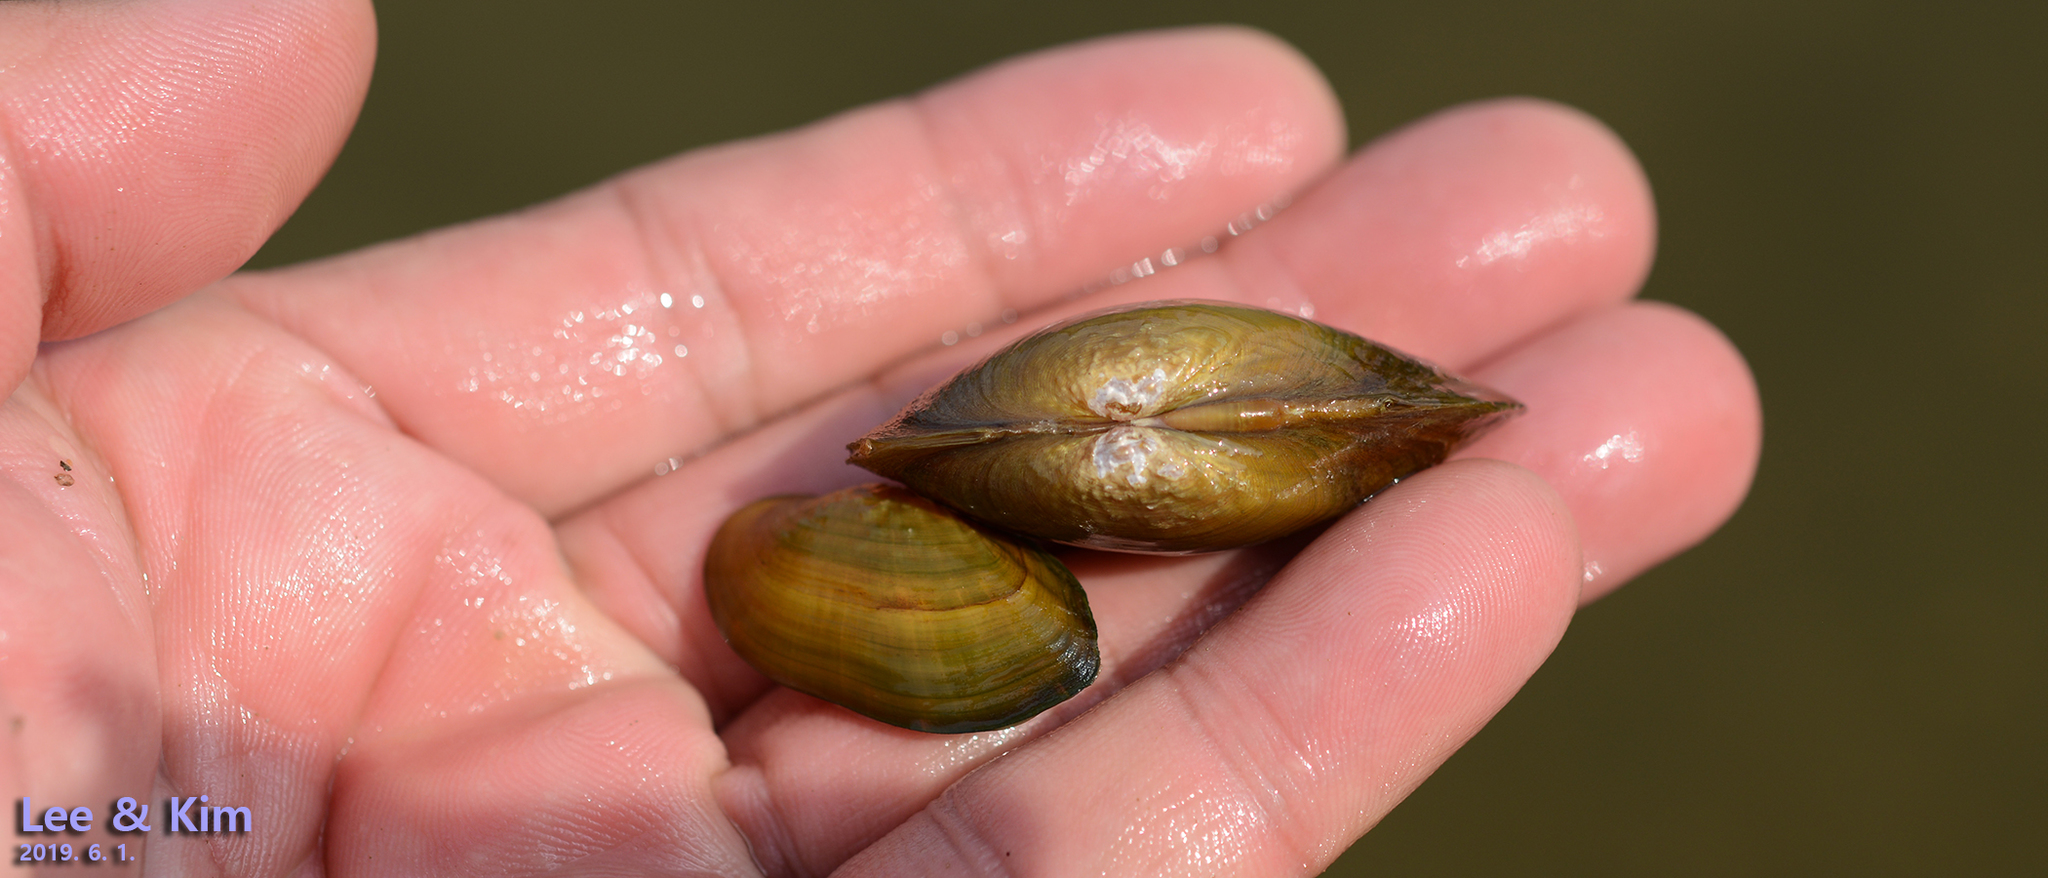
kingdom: Animalia
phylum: Mollusca
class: Bivalvia
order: Unionida
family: Unionidae
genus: Nodularia
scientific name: Nodularia douglasiae
